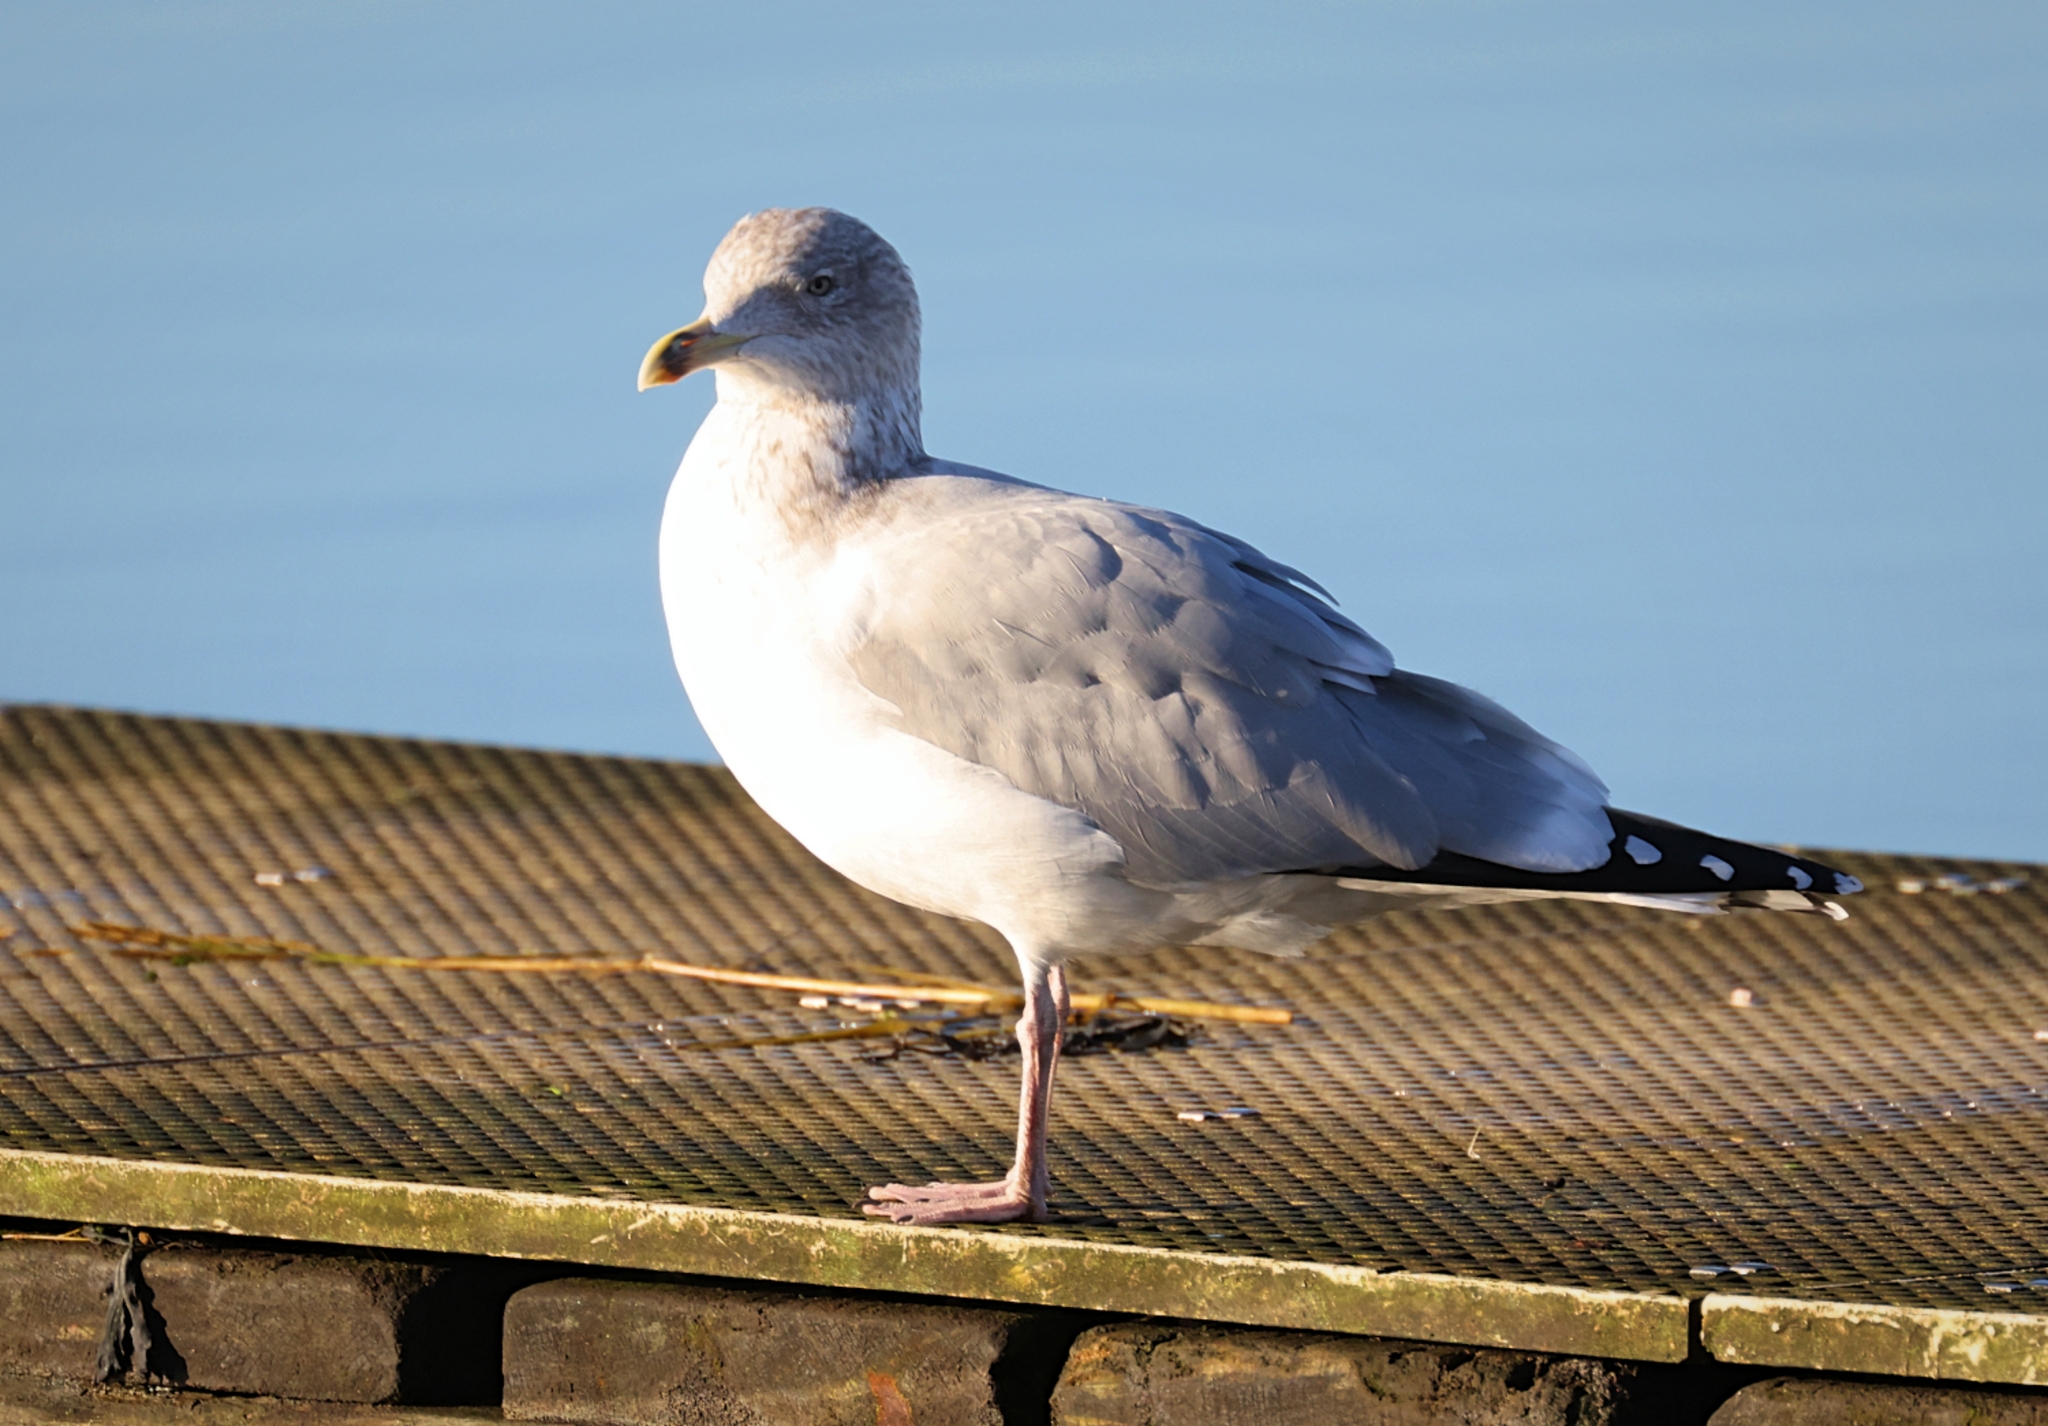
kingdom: Animalia
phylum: Chordata
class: Aves
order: Charadriiformes
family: Laridae
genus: Larus
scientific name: Larus argentatus
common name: Herring gull
